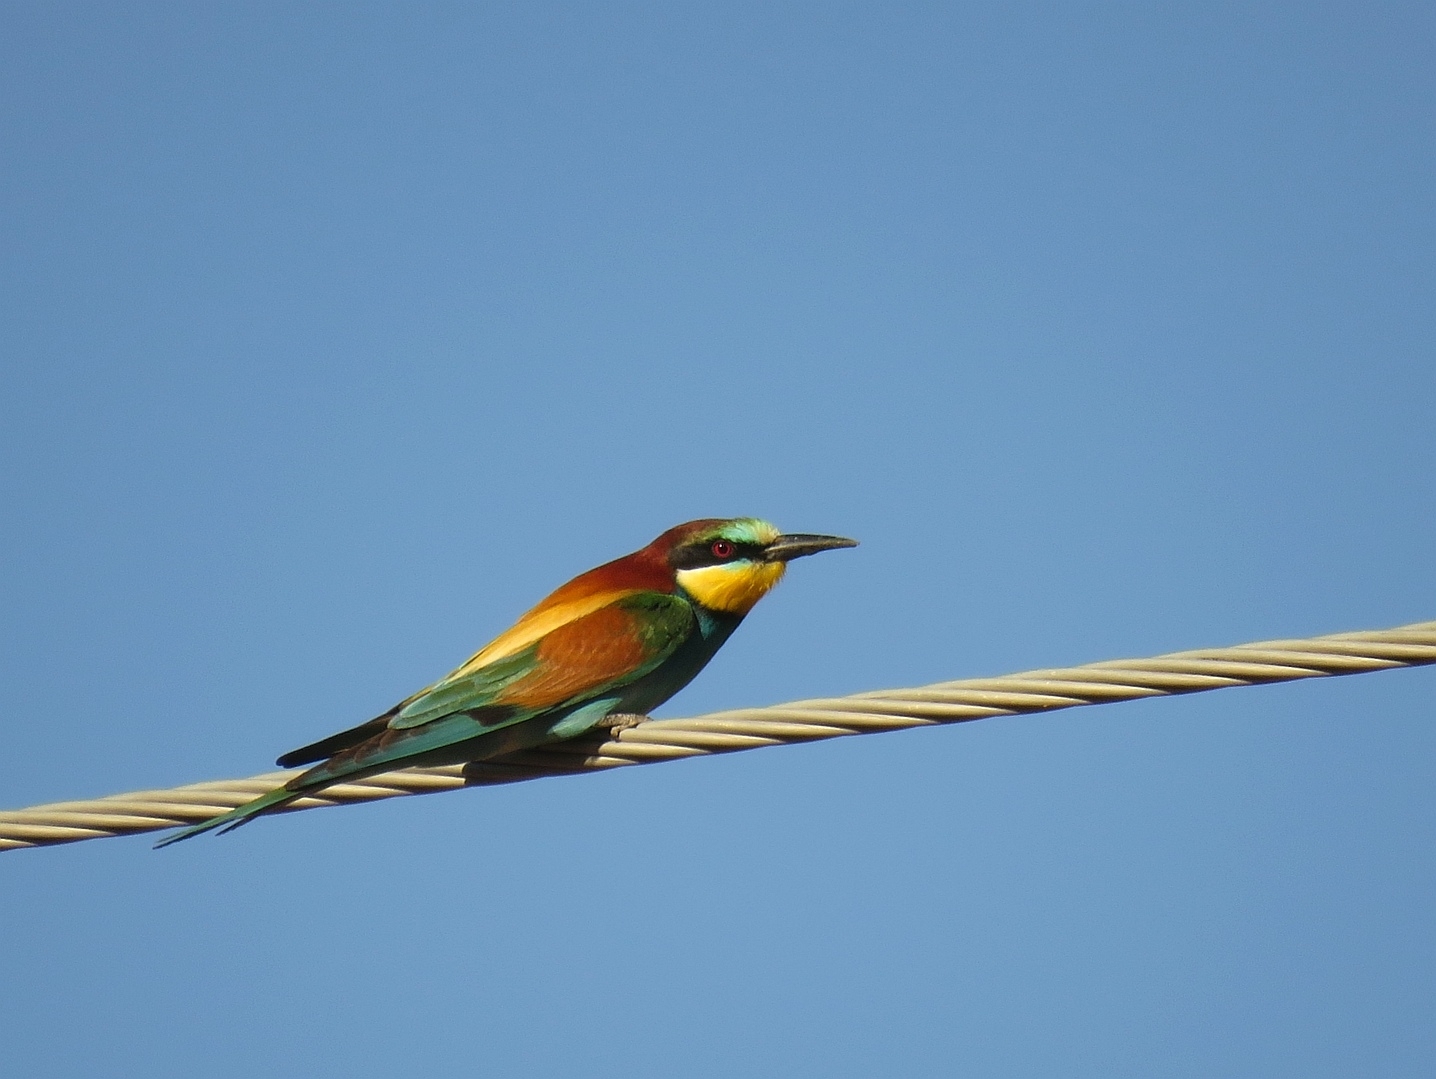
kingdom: Animalia
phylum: Chordata
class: Aves
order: Coraciiformes
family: Meropidae
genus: Merops
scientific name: Merops apiaster
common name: European bee-eater
